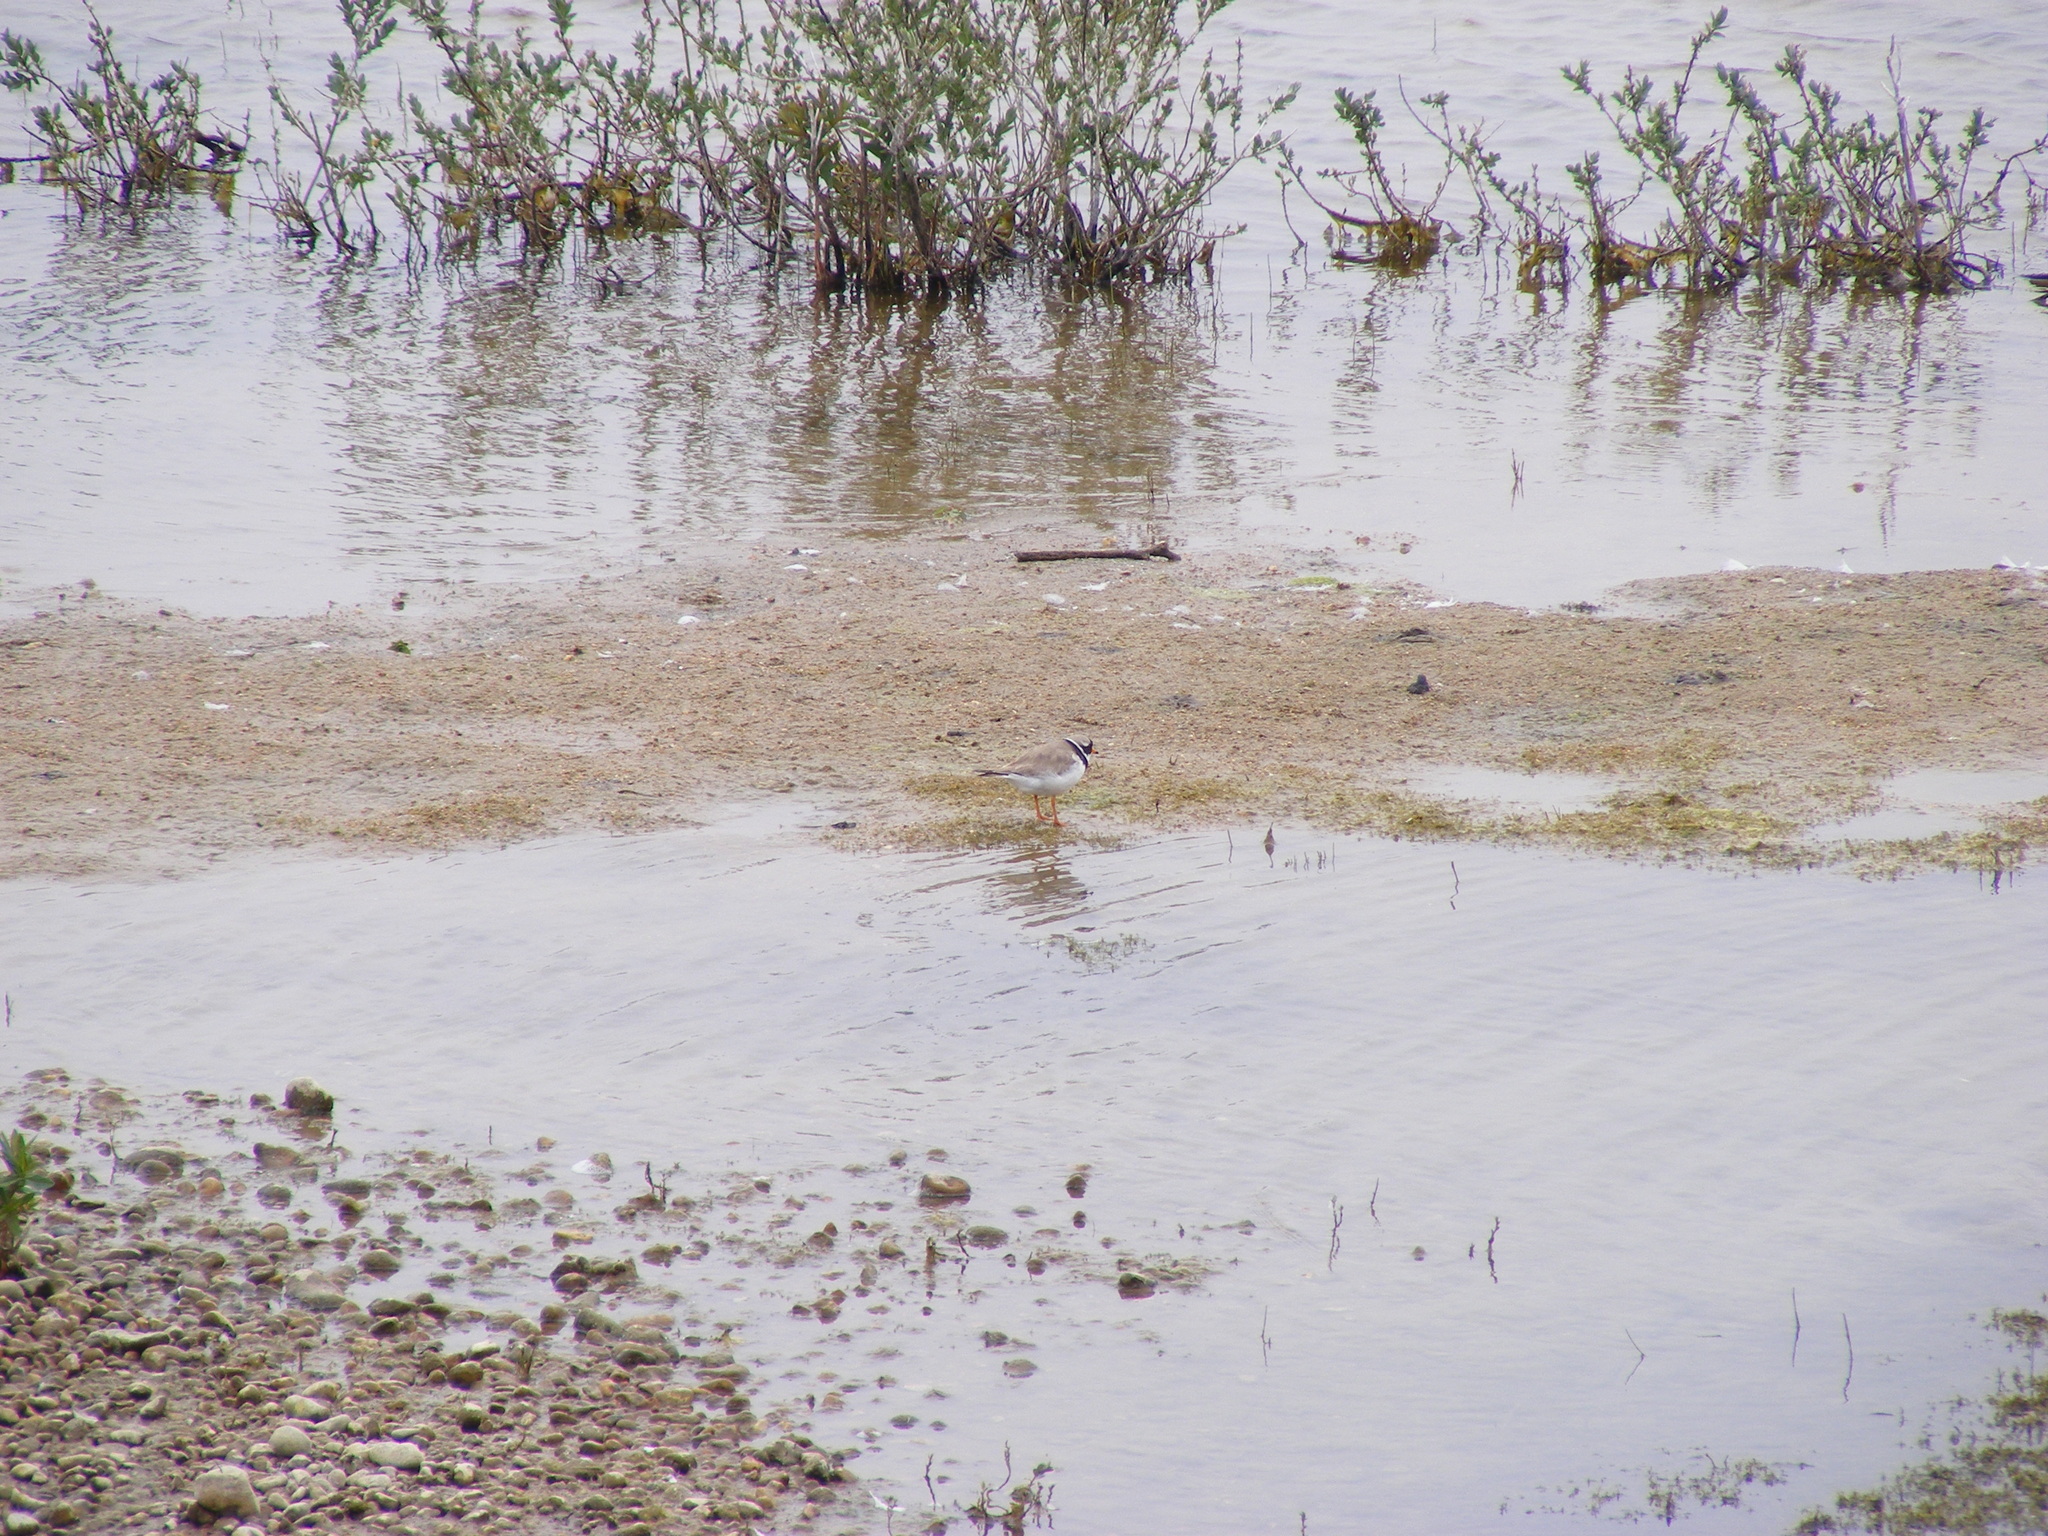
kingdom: Animalia
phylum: Chordata
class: Aves
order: Charadriiformes
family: Charadriidae
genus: Charadrius
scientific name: Charadrius hiaticula
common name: Common ringed plover
